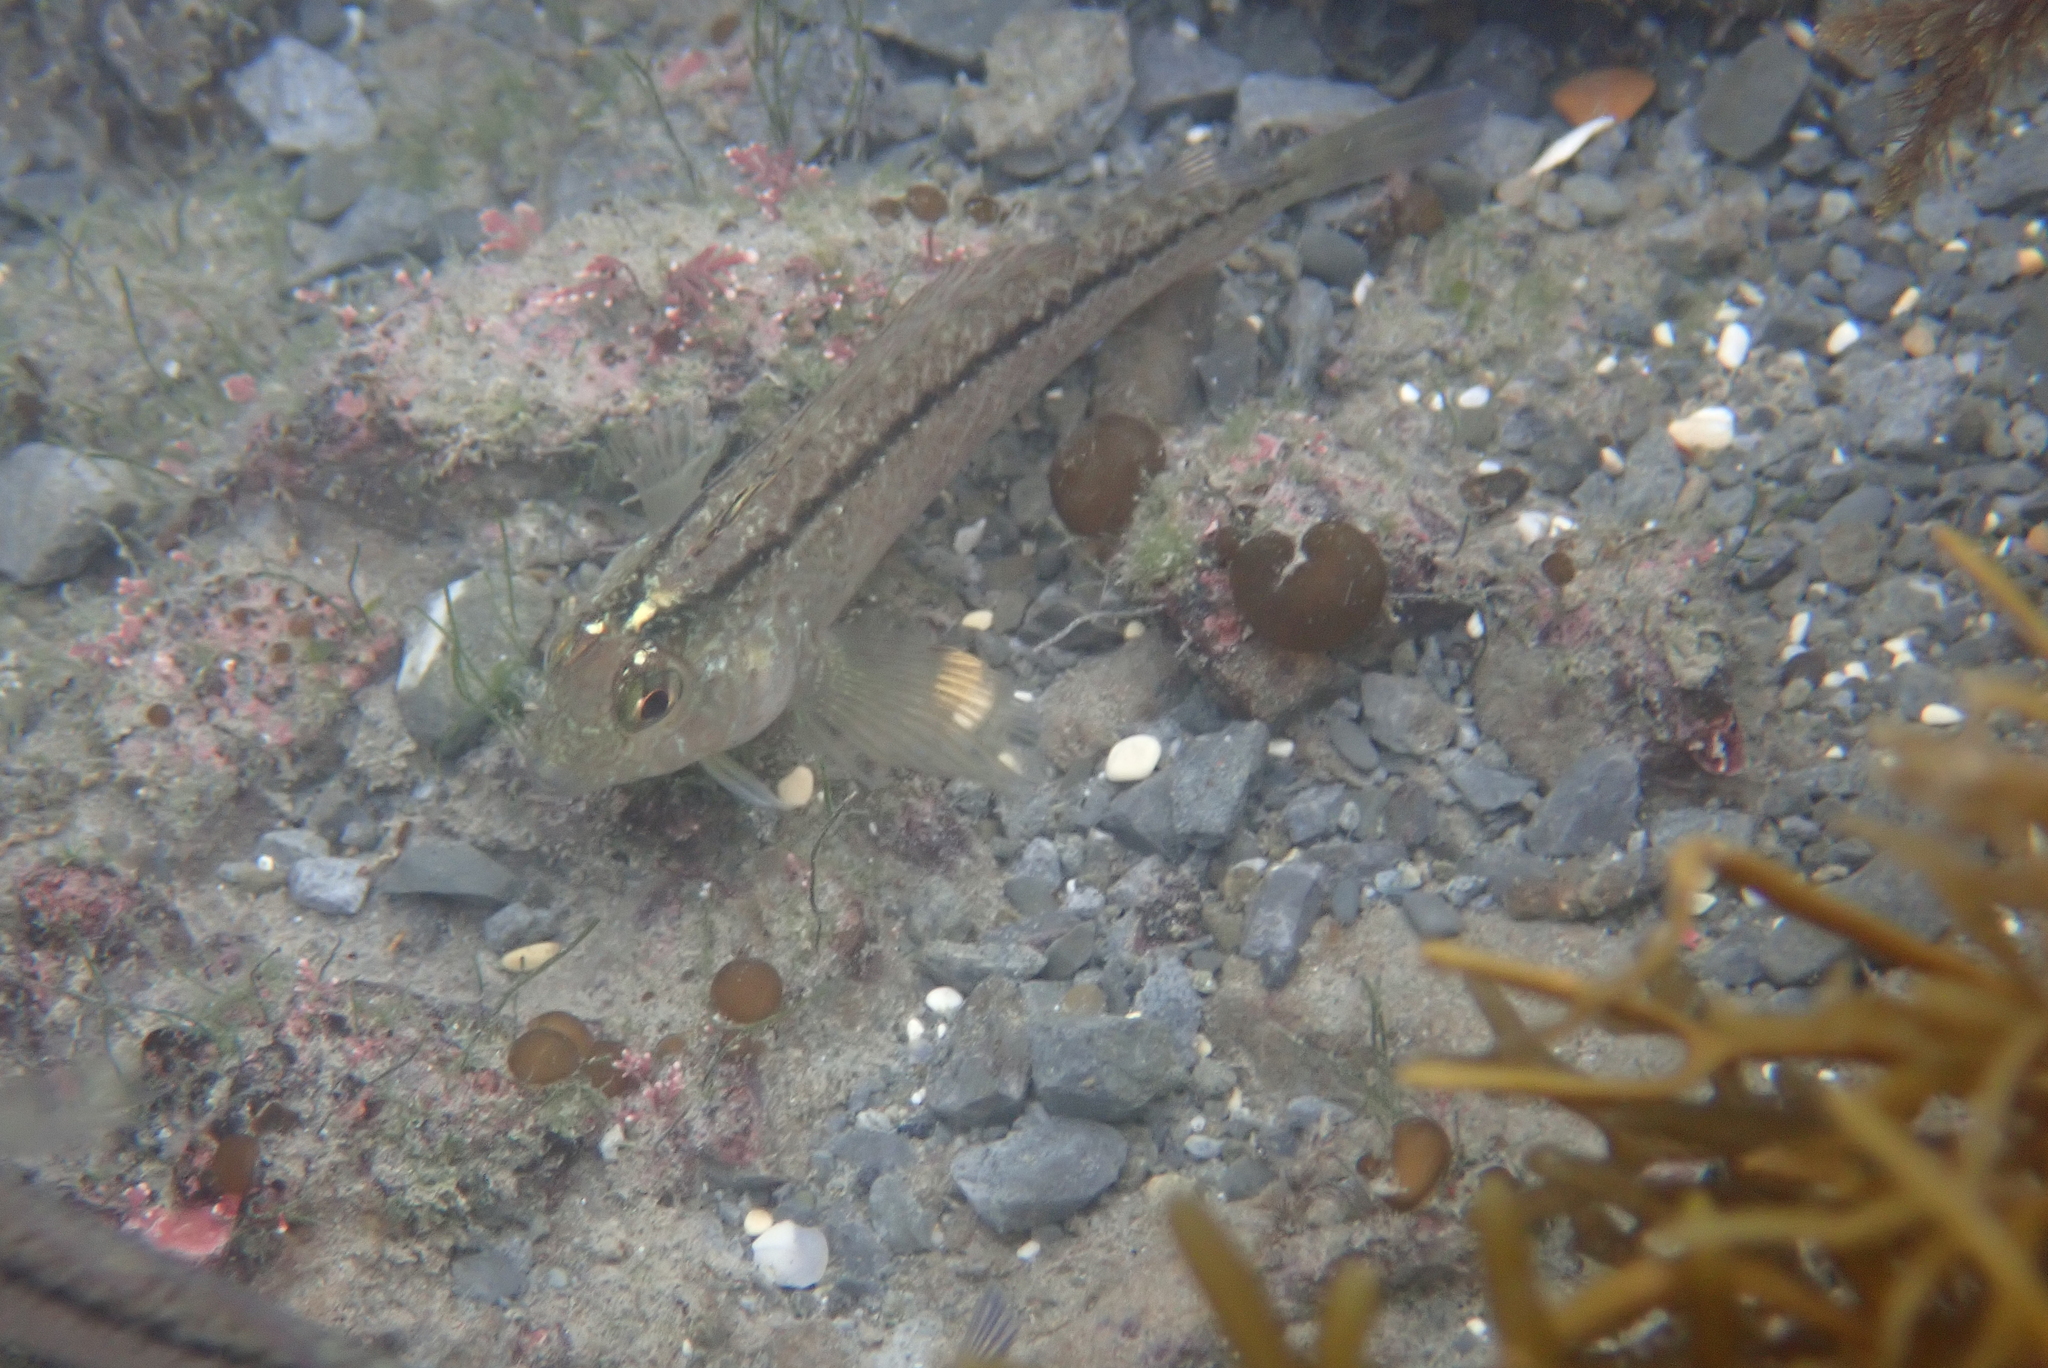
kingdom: Animalia
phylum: Chordata
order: Perciformes
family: Tripterygiidae
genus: Forsterygion
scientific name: Forsterygion lapillum
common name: Common triplefin
